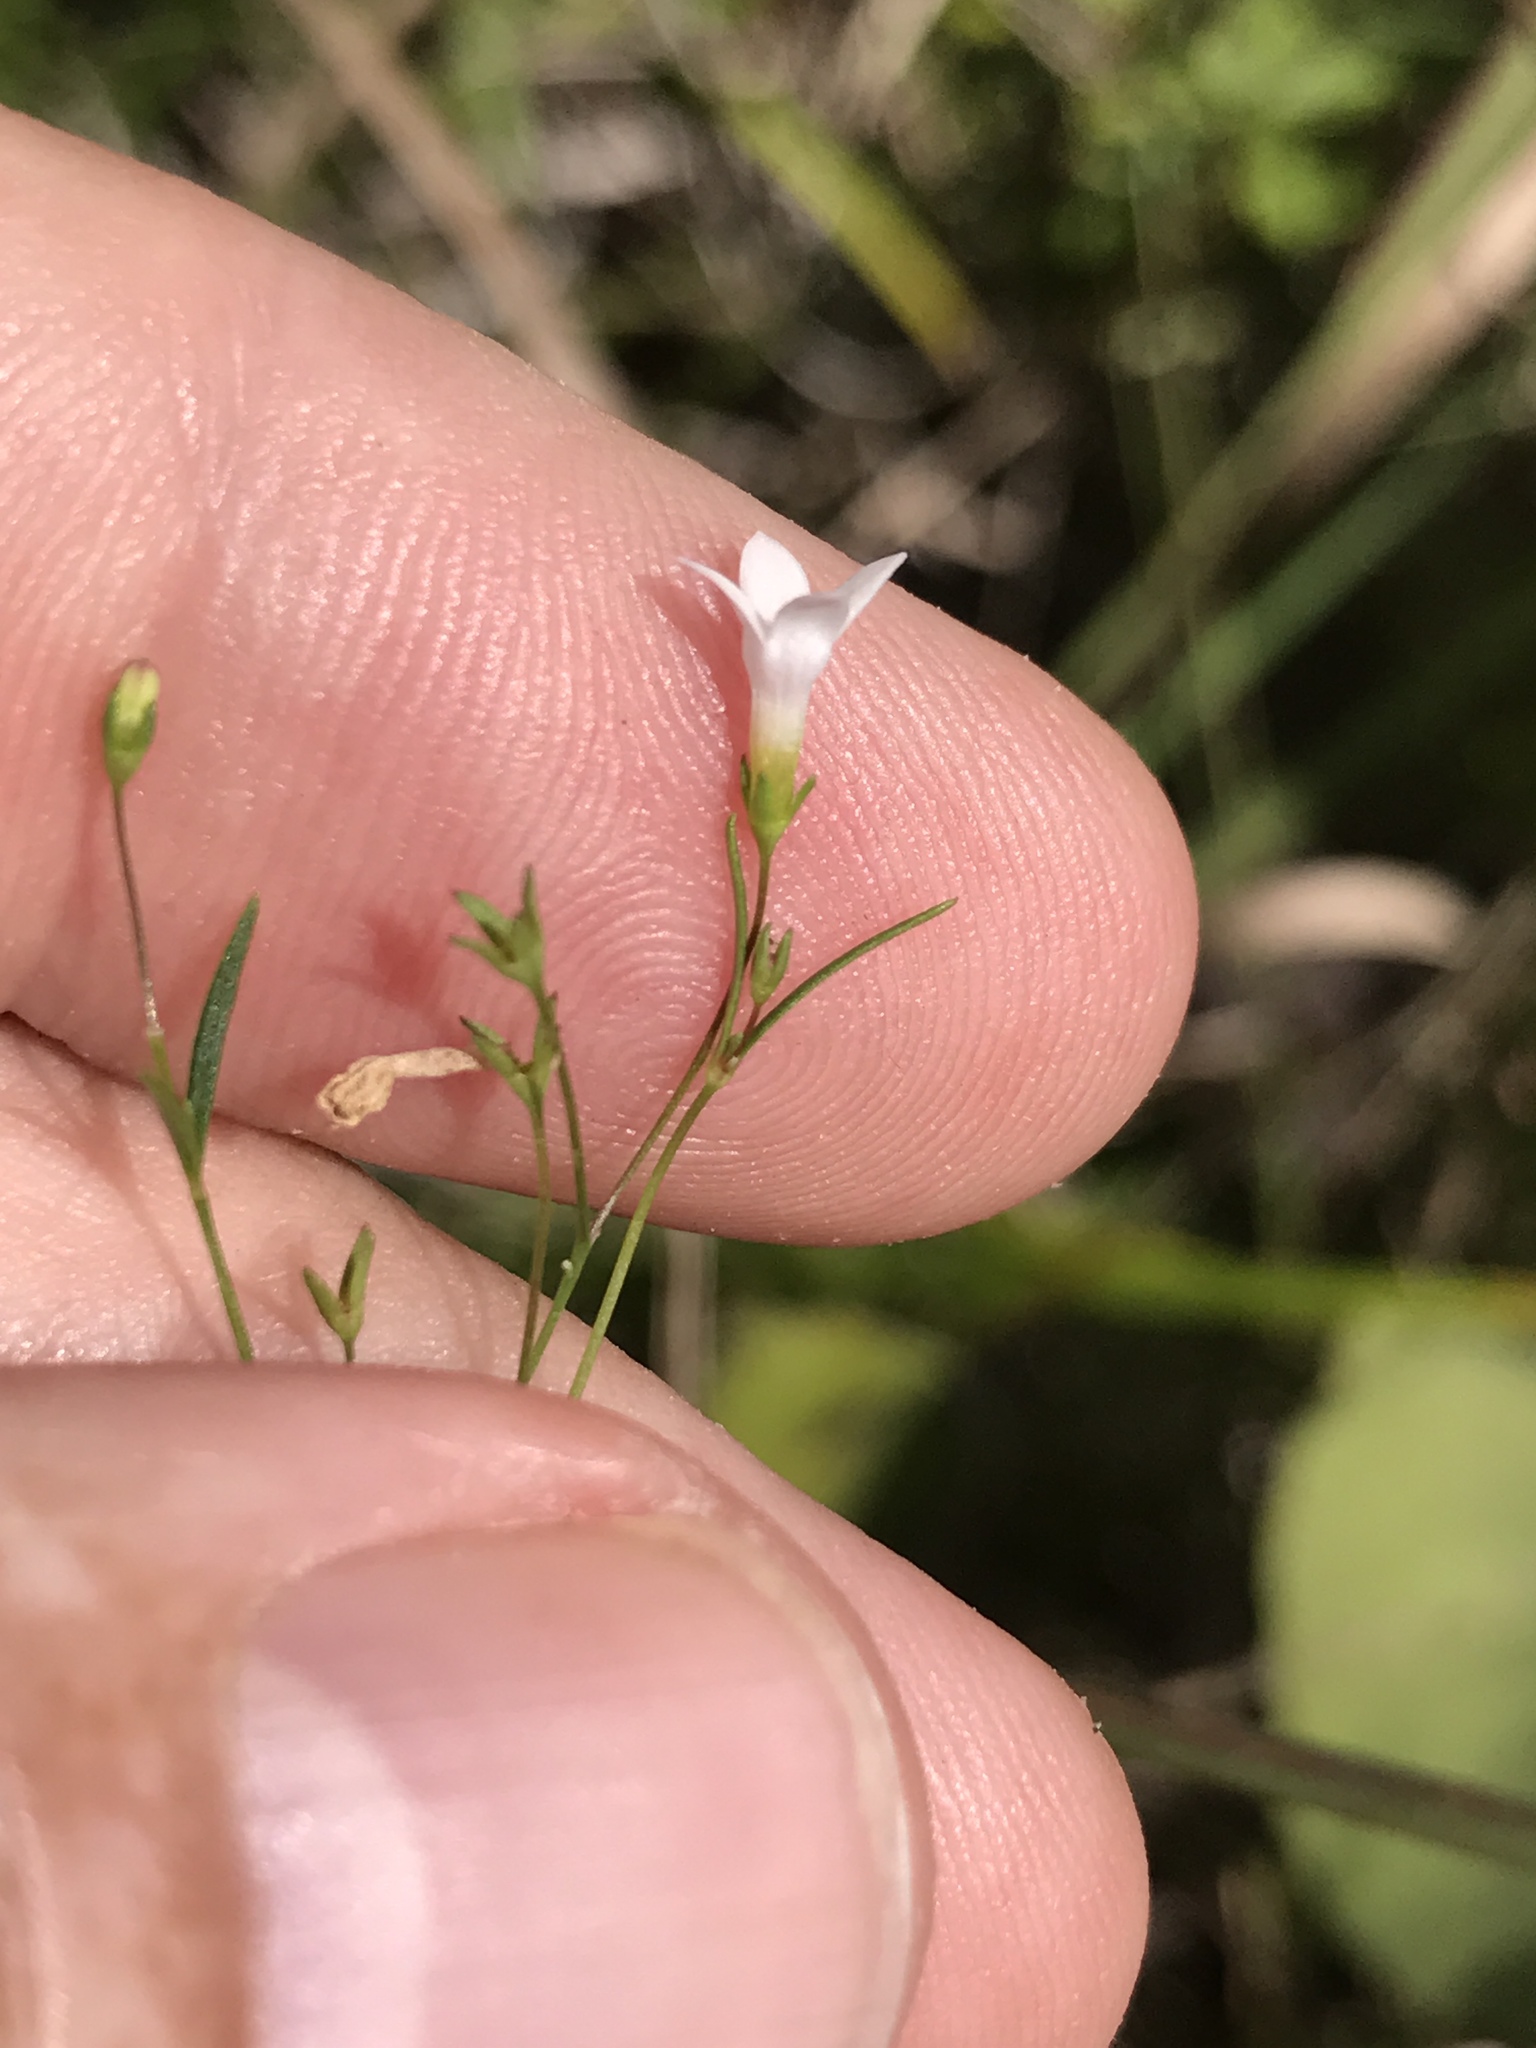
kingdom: Plantae
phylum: Tracheophyta
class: Magnoliopsida
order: Gentianales
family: Rubiaceae
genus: Houstonia
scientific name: Houstonia longifolia
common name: Long-leaved bluets
